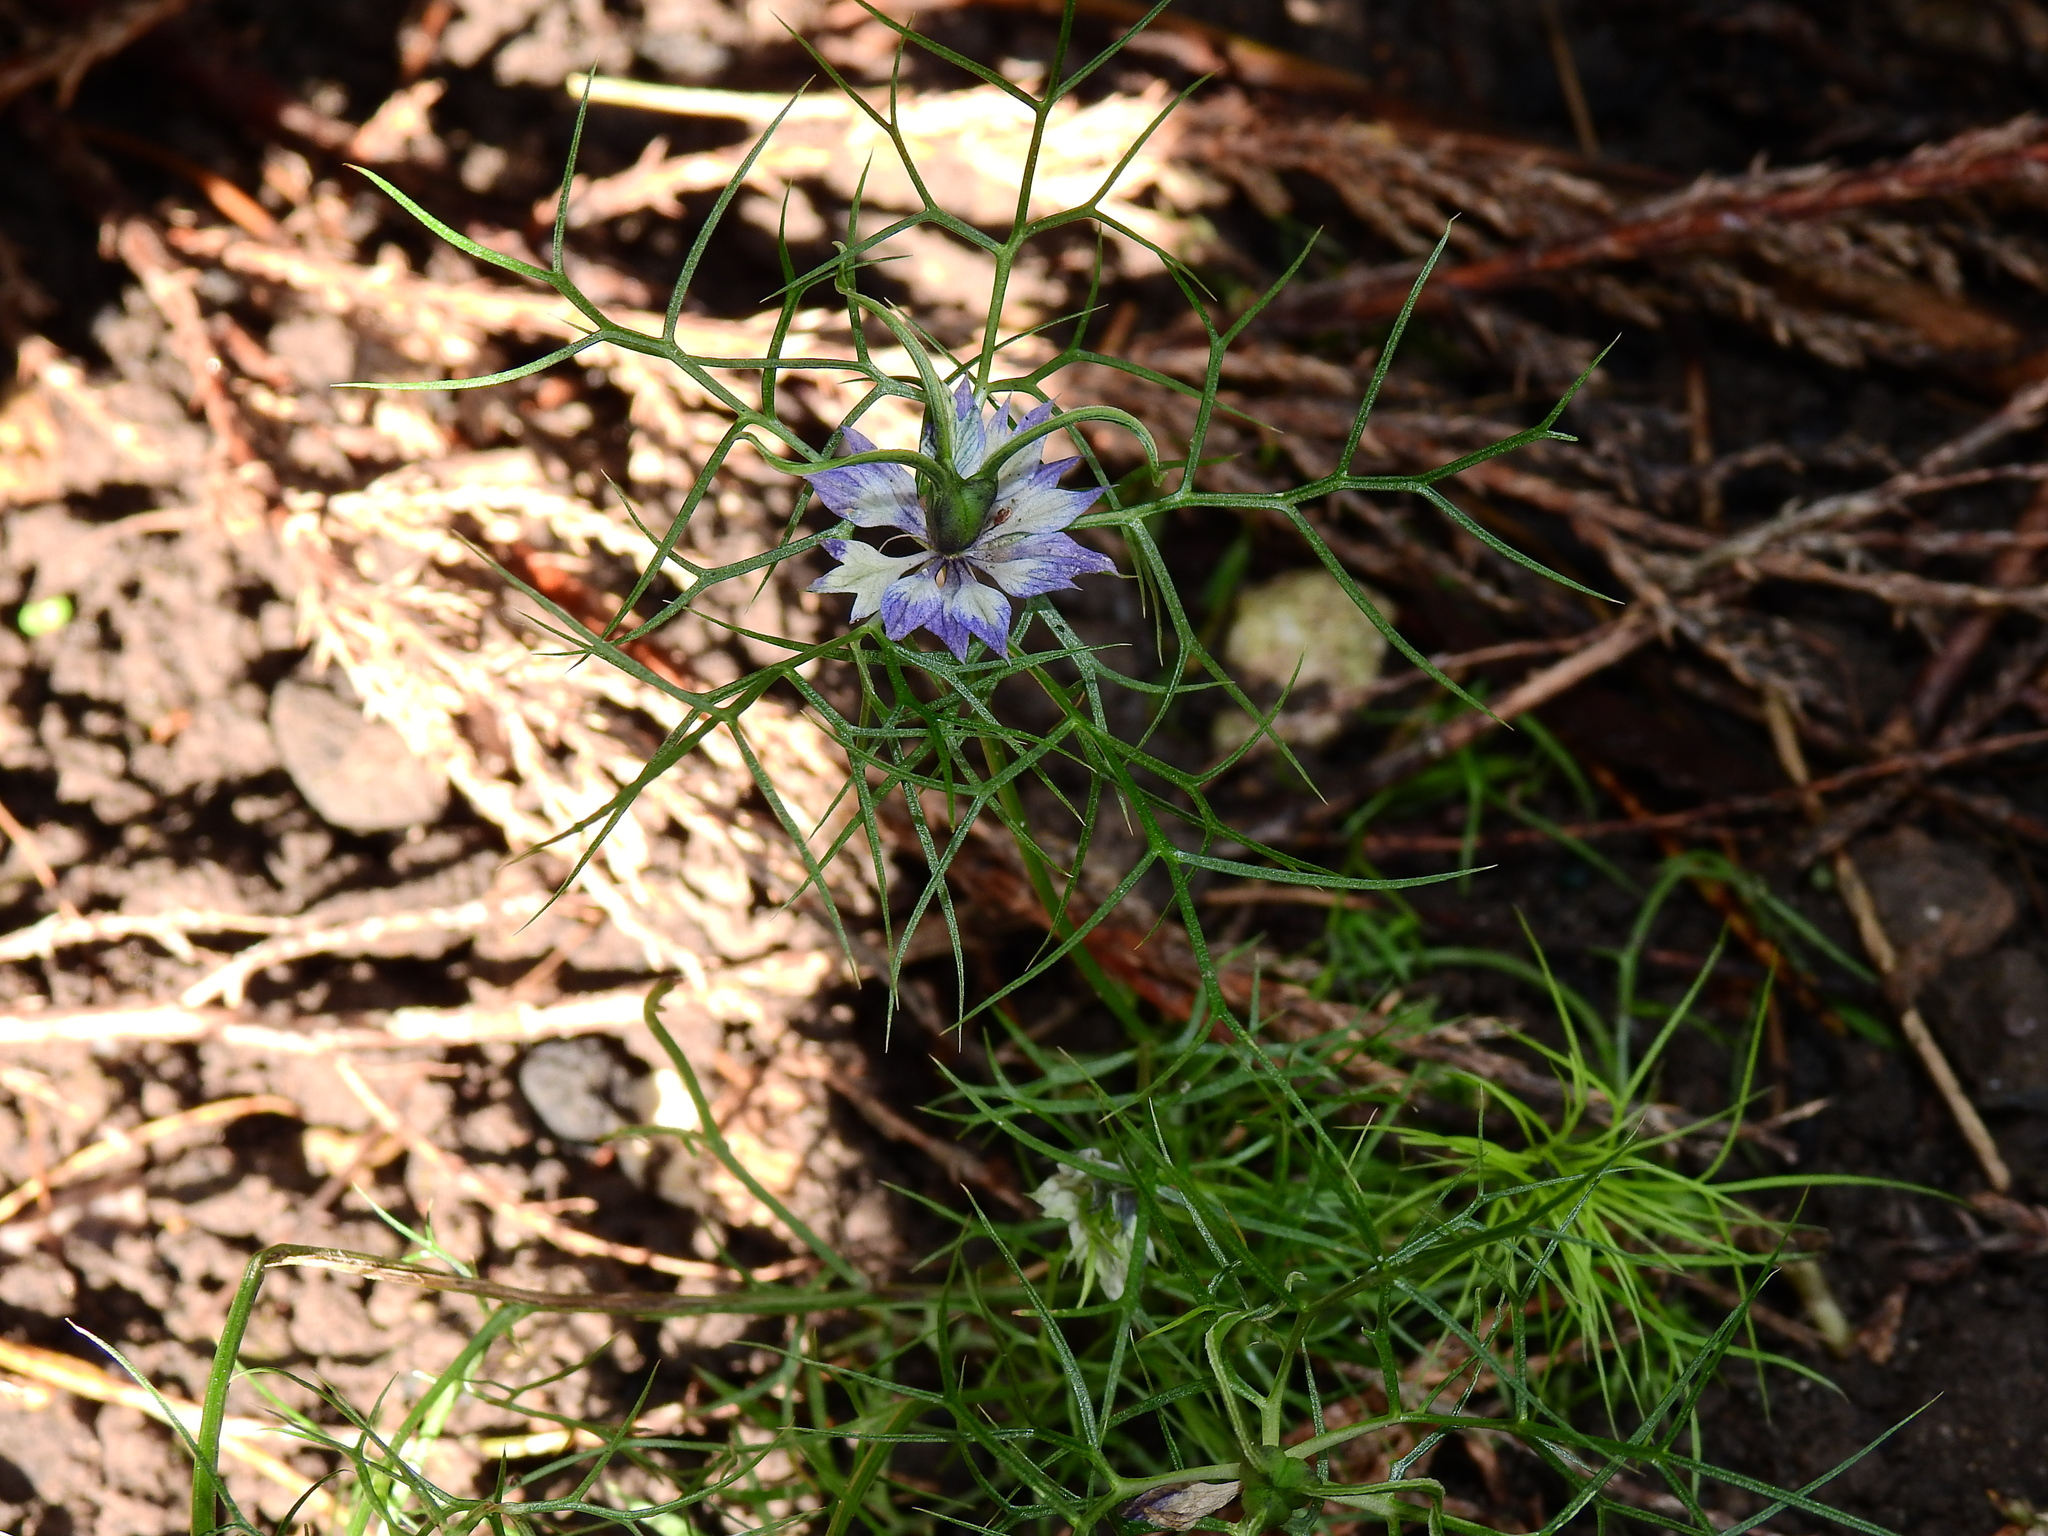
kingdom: Plantae
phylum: Tracheophyta
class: Magnoliopsida
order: Ranunculales
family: Ranunculaceae
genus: Nigella
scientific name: Nigella damascena
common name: Love-in-a-mist
